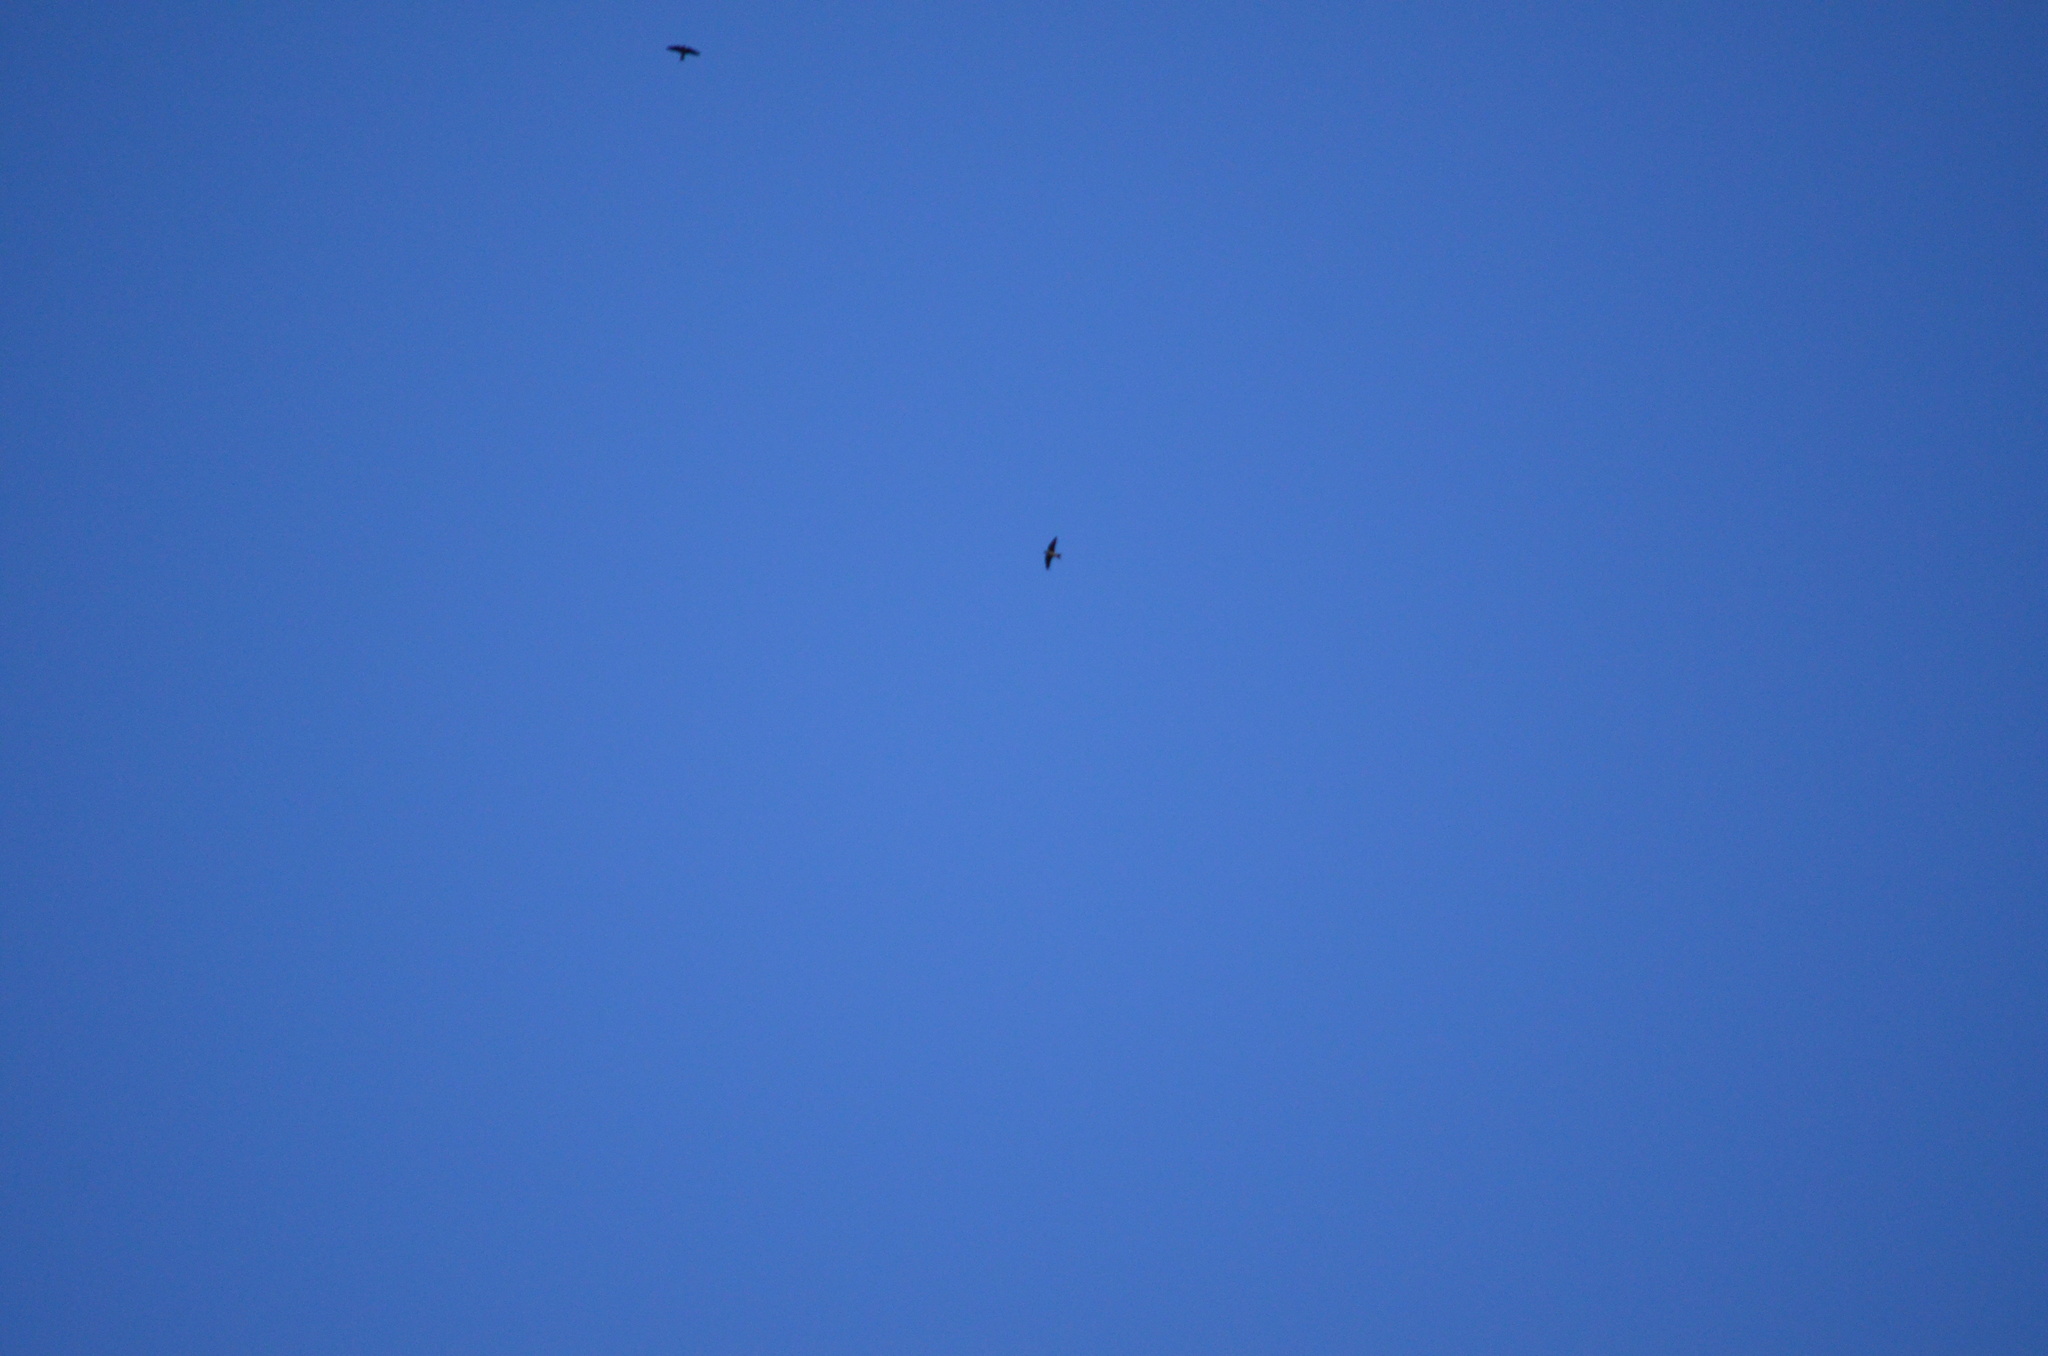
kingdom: Animalia
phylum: Chordata
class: Aves
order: Passeriformes
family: Hirundinidae
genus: Progne
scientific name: Progne subis
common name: Purple martin
